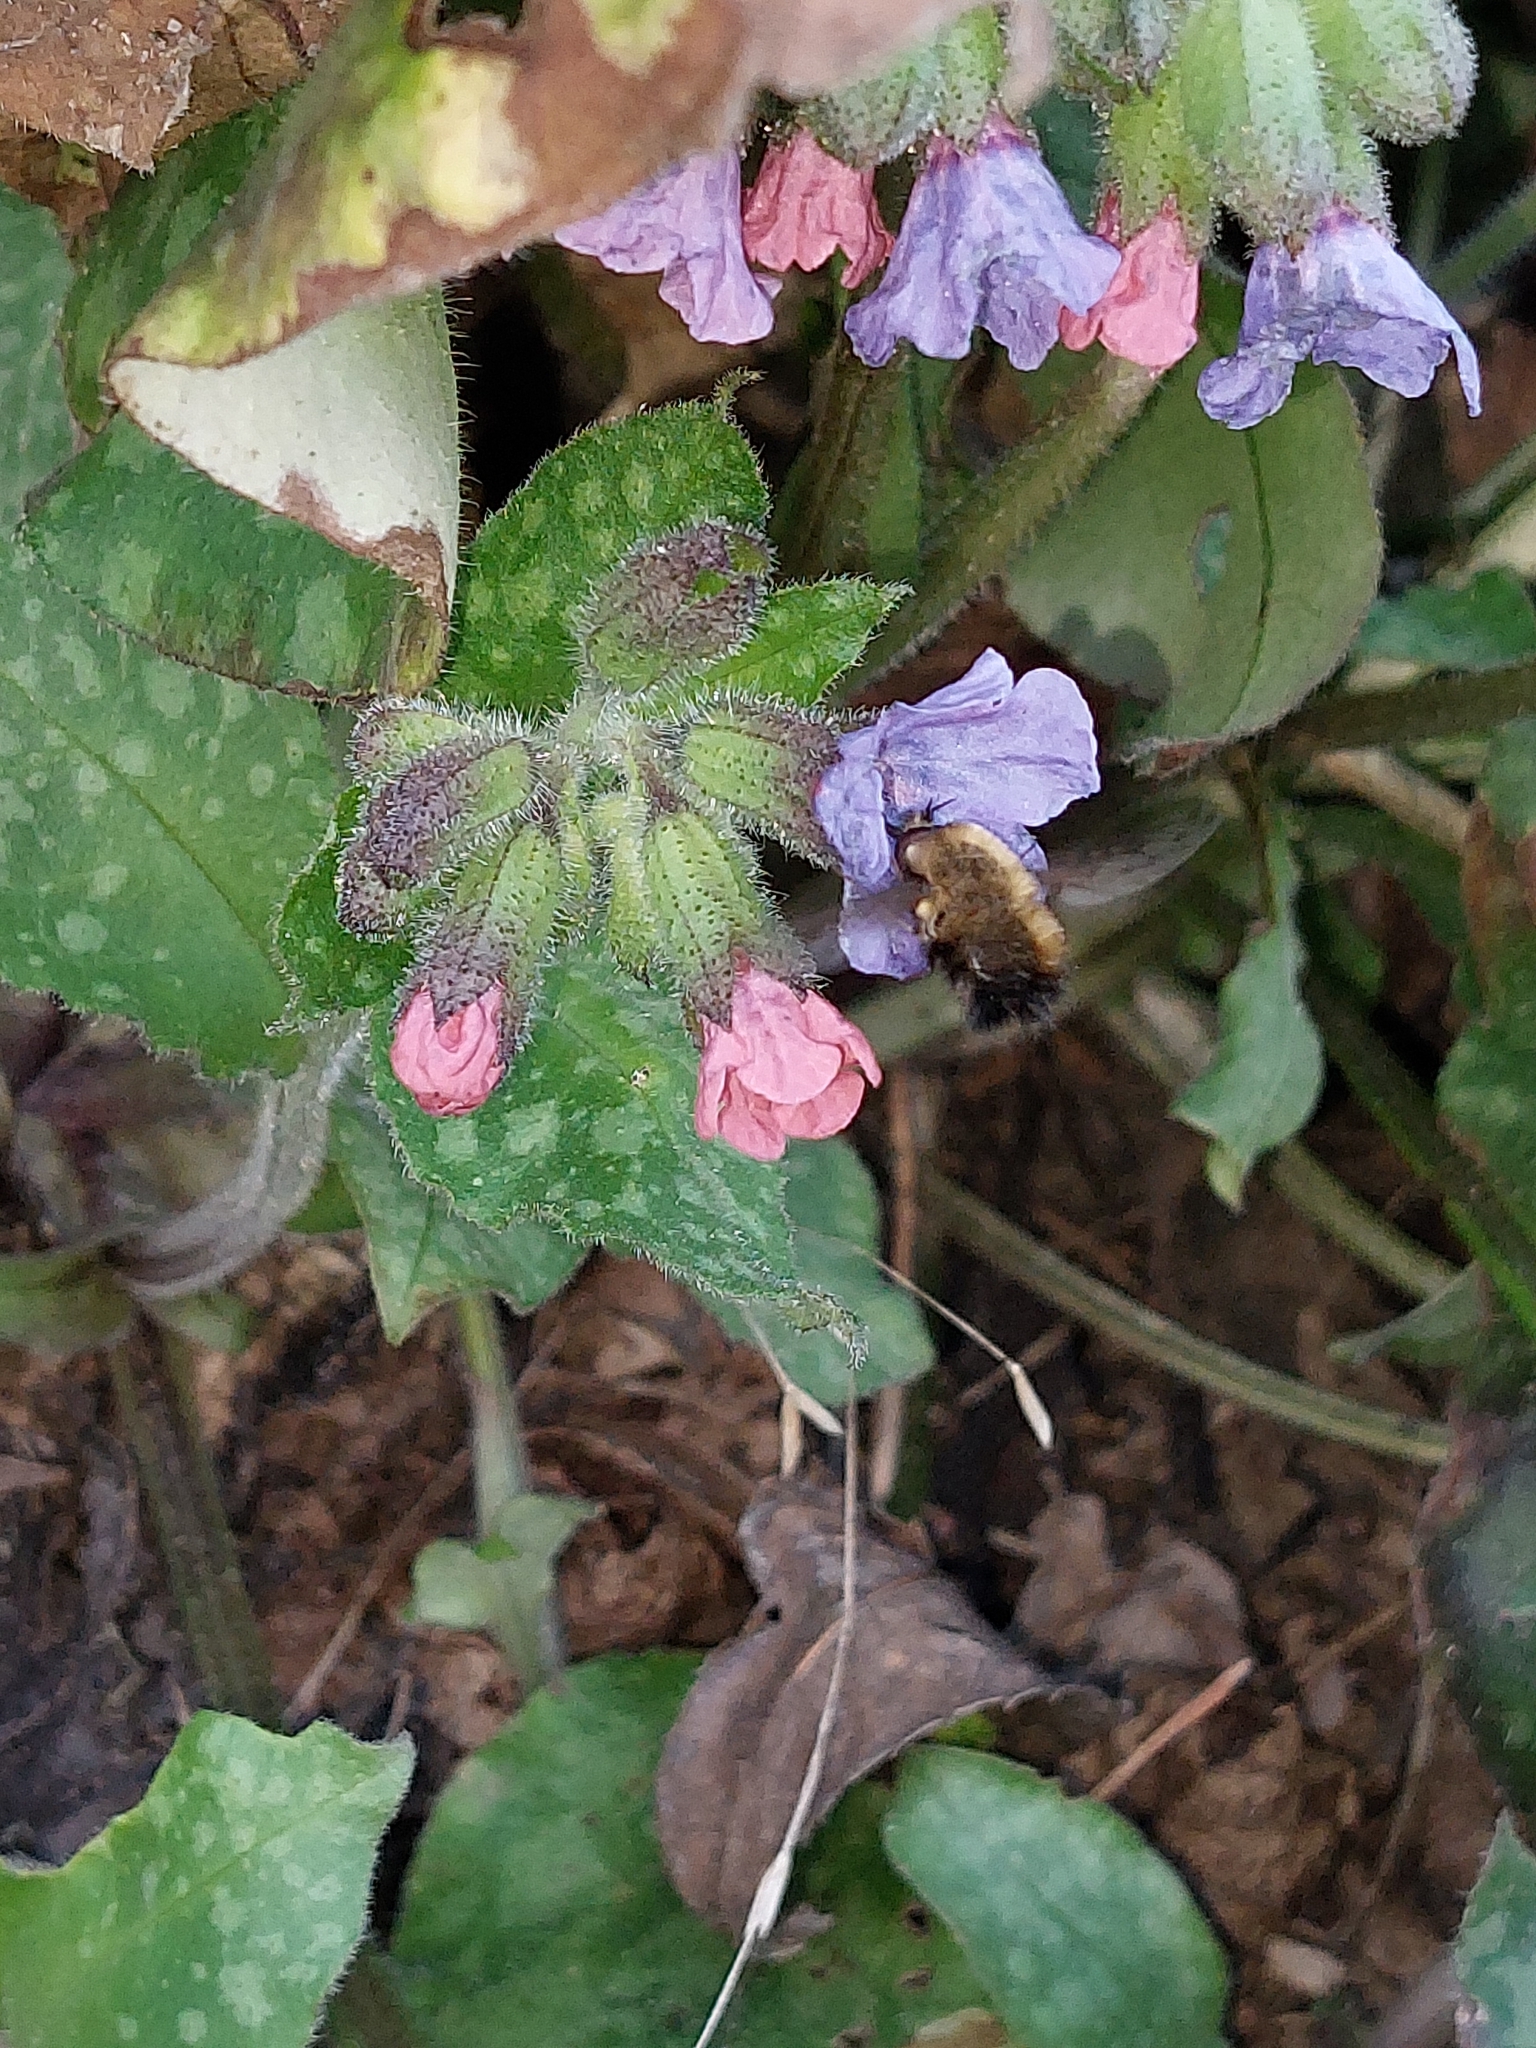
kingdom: Animalia
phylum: Arthropoda
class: Insecta
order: Diptera
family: Bombyliidae
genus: Bombylius
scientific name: Bombylius discolor
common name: Dotted bee-fly
